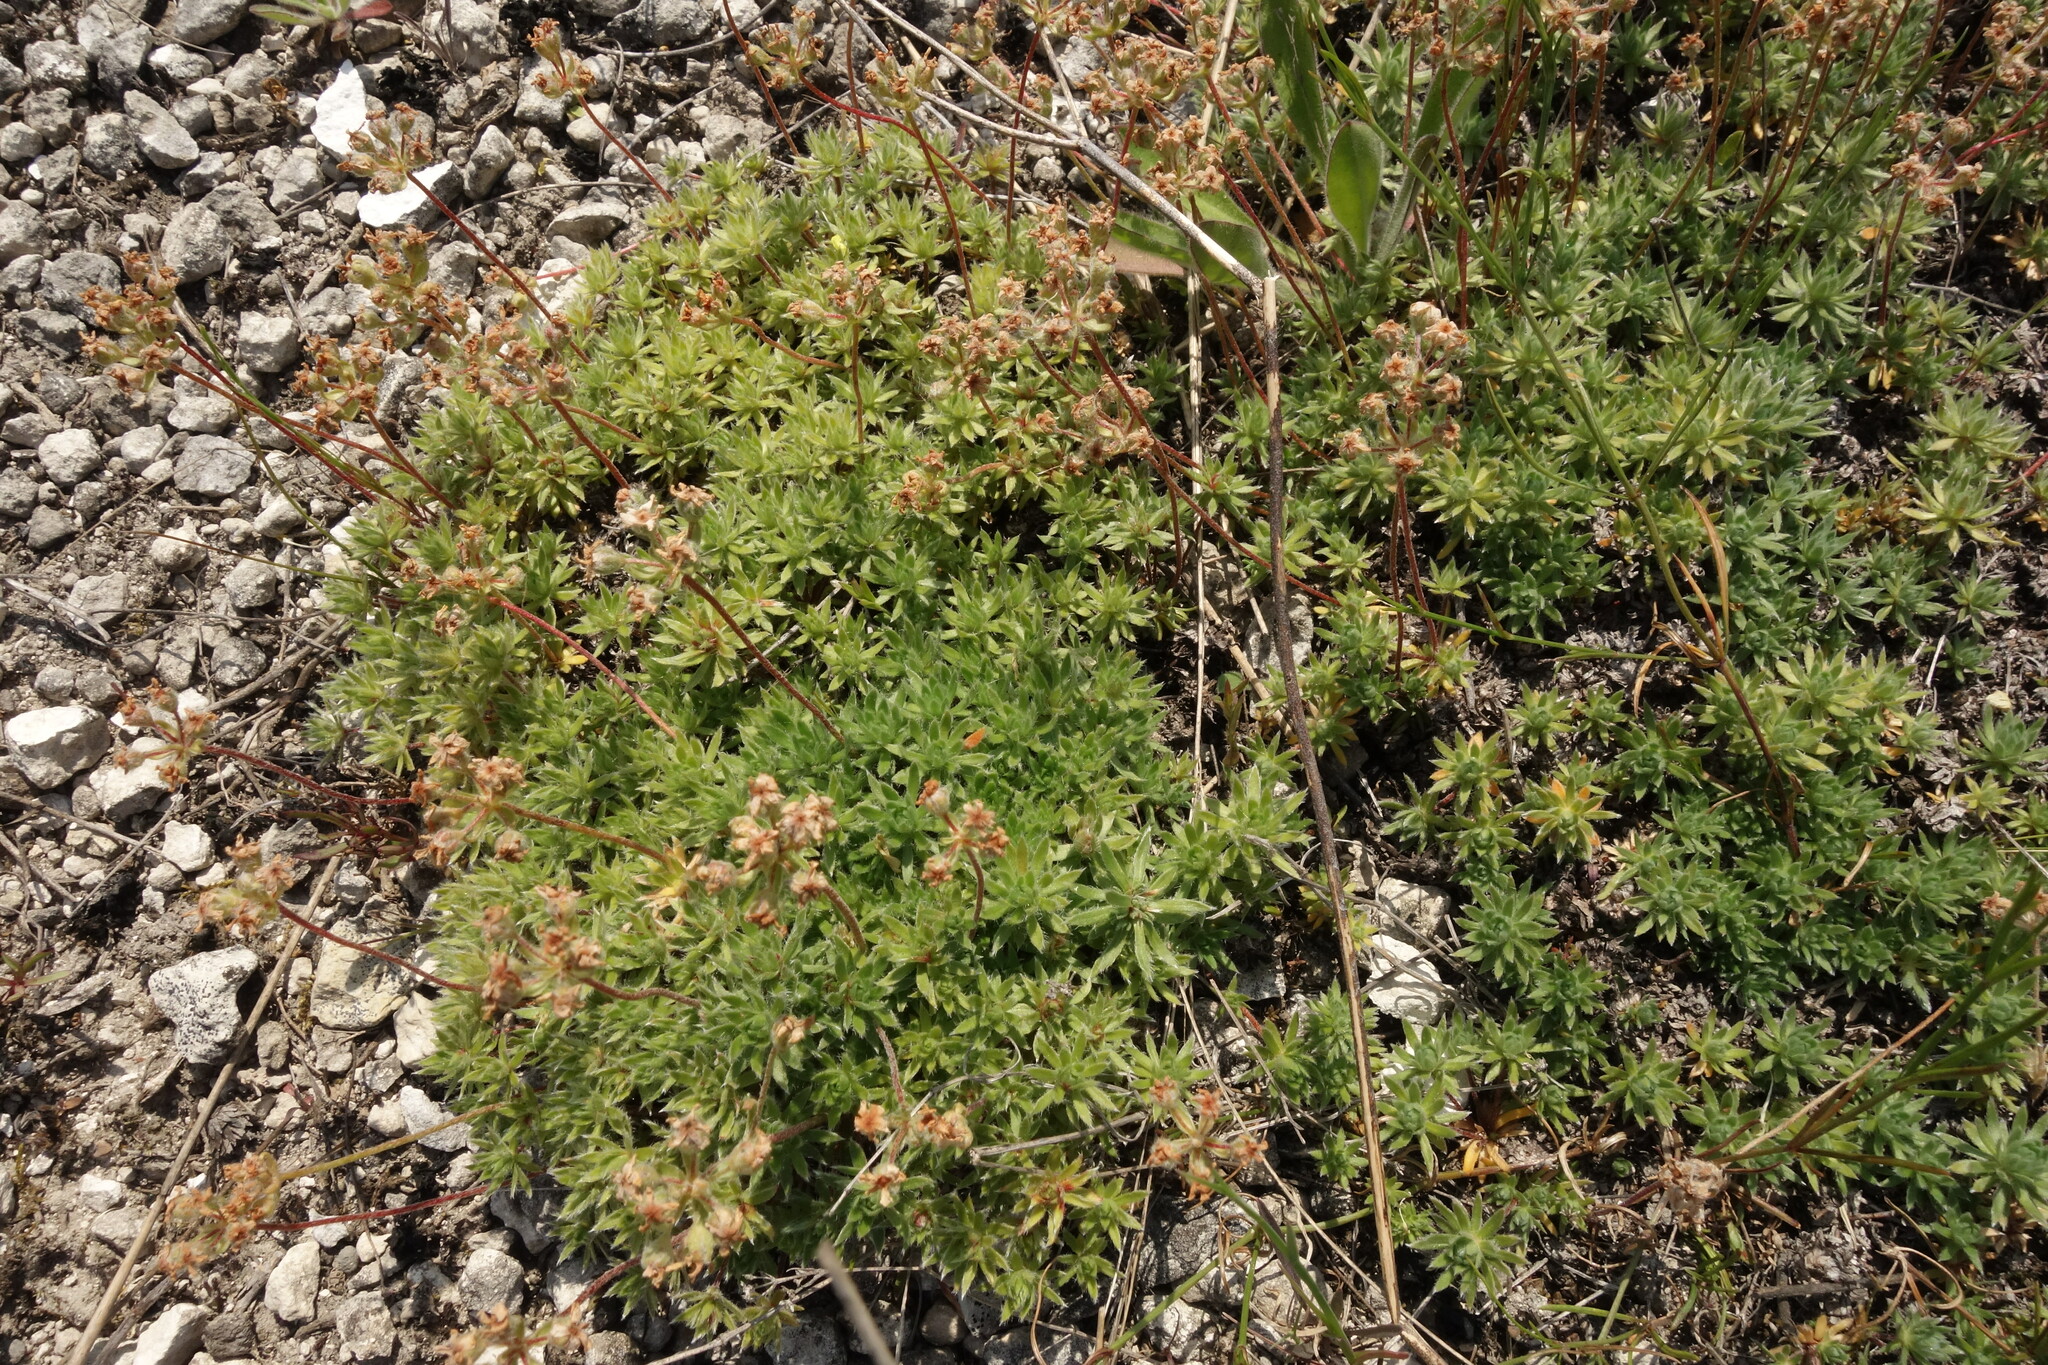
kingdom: Plantae
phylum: Tracheophyta
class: Magnoliopsida
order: Ericales
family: Primulaceae
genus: Androsace
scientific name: Androsace villosa
